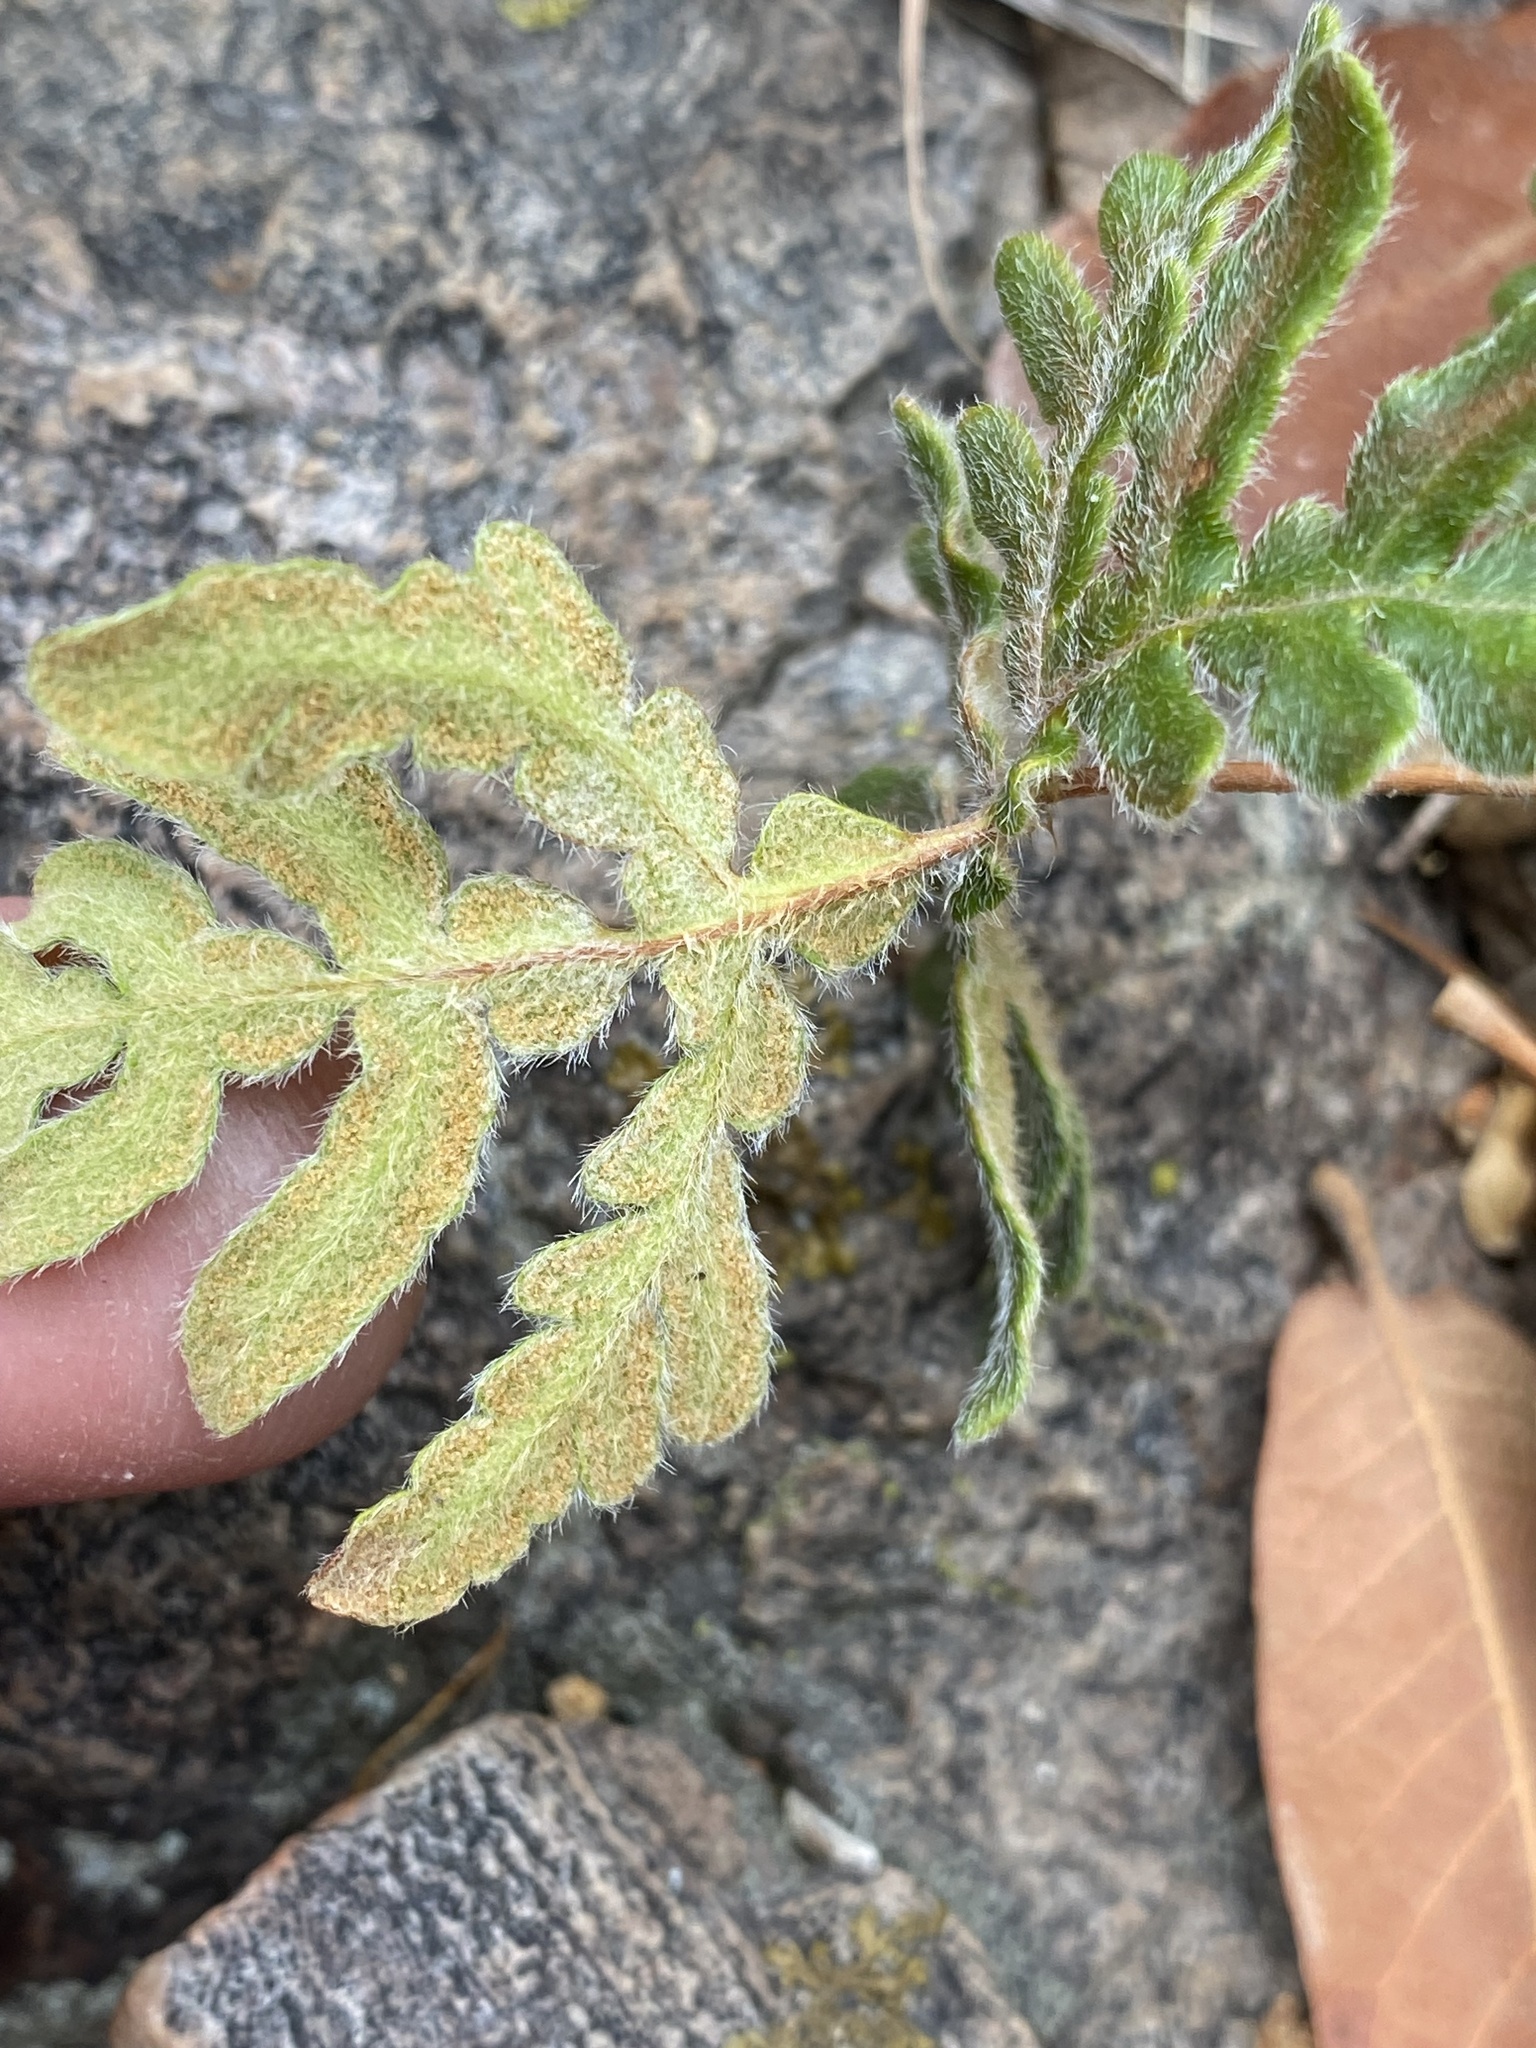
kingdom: Plantae
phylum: Tracheophyta
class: Polypodiopsida
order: Polypodiales
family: Pteridaceae
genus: Bommeria
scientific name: Bommeria hispida
